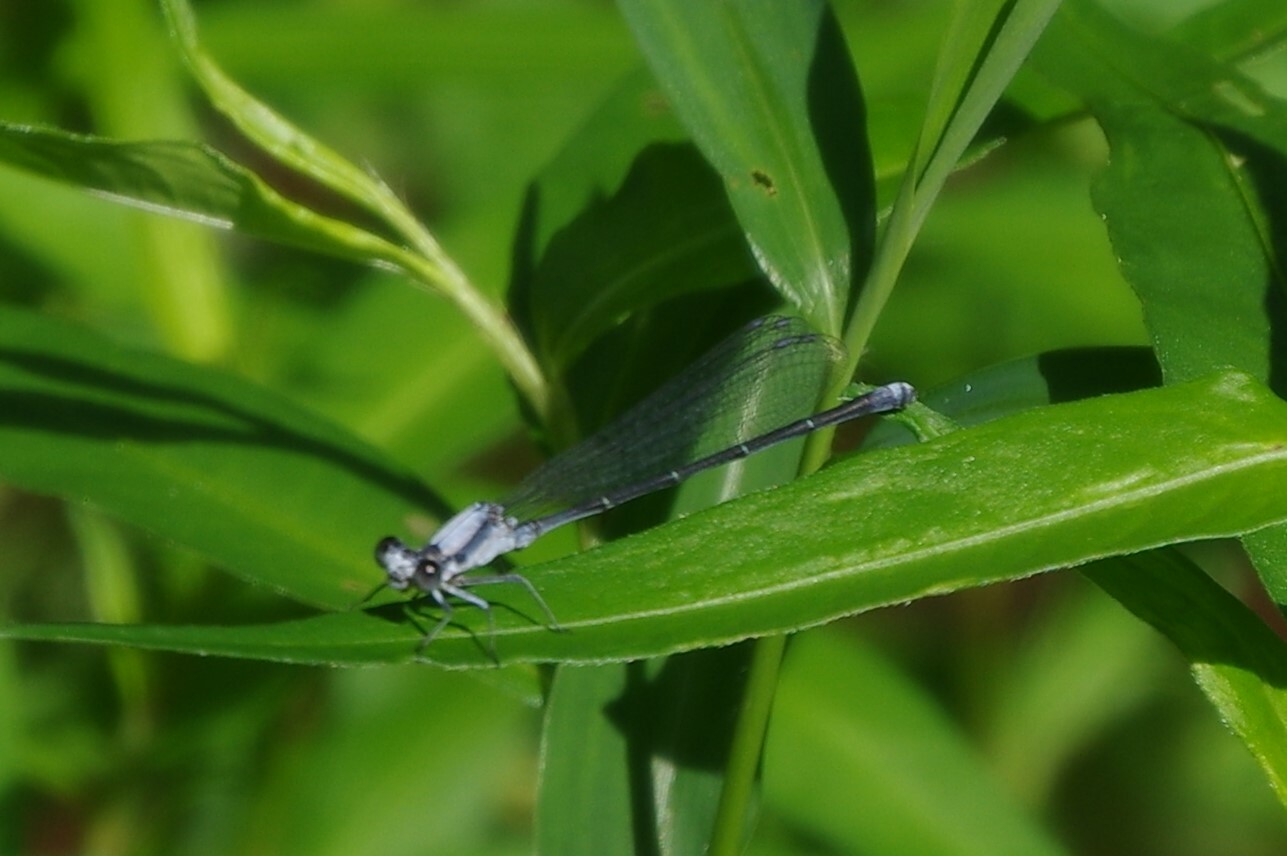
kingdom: Animalia
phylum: Arthropoda
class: Insecta
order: Odonata
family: Coenagrionidae
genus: Argia
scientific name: Argia moesta
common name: Powdered dancer
